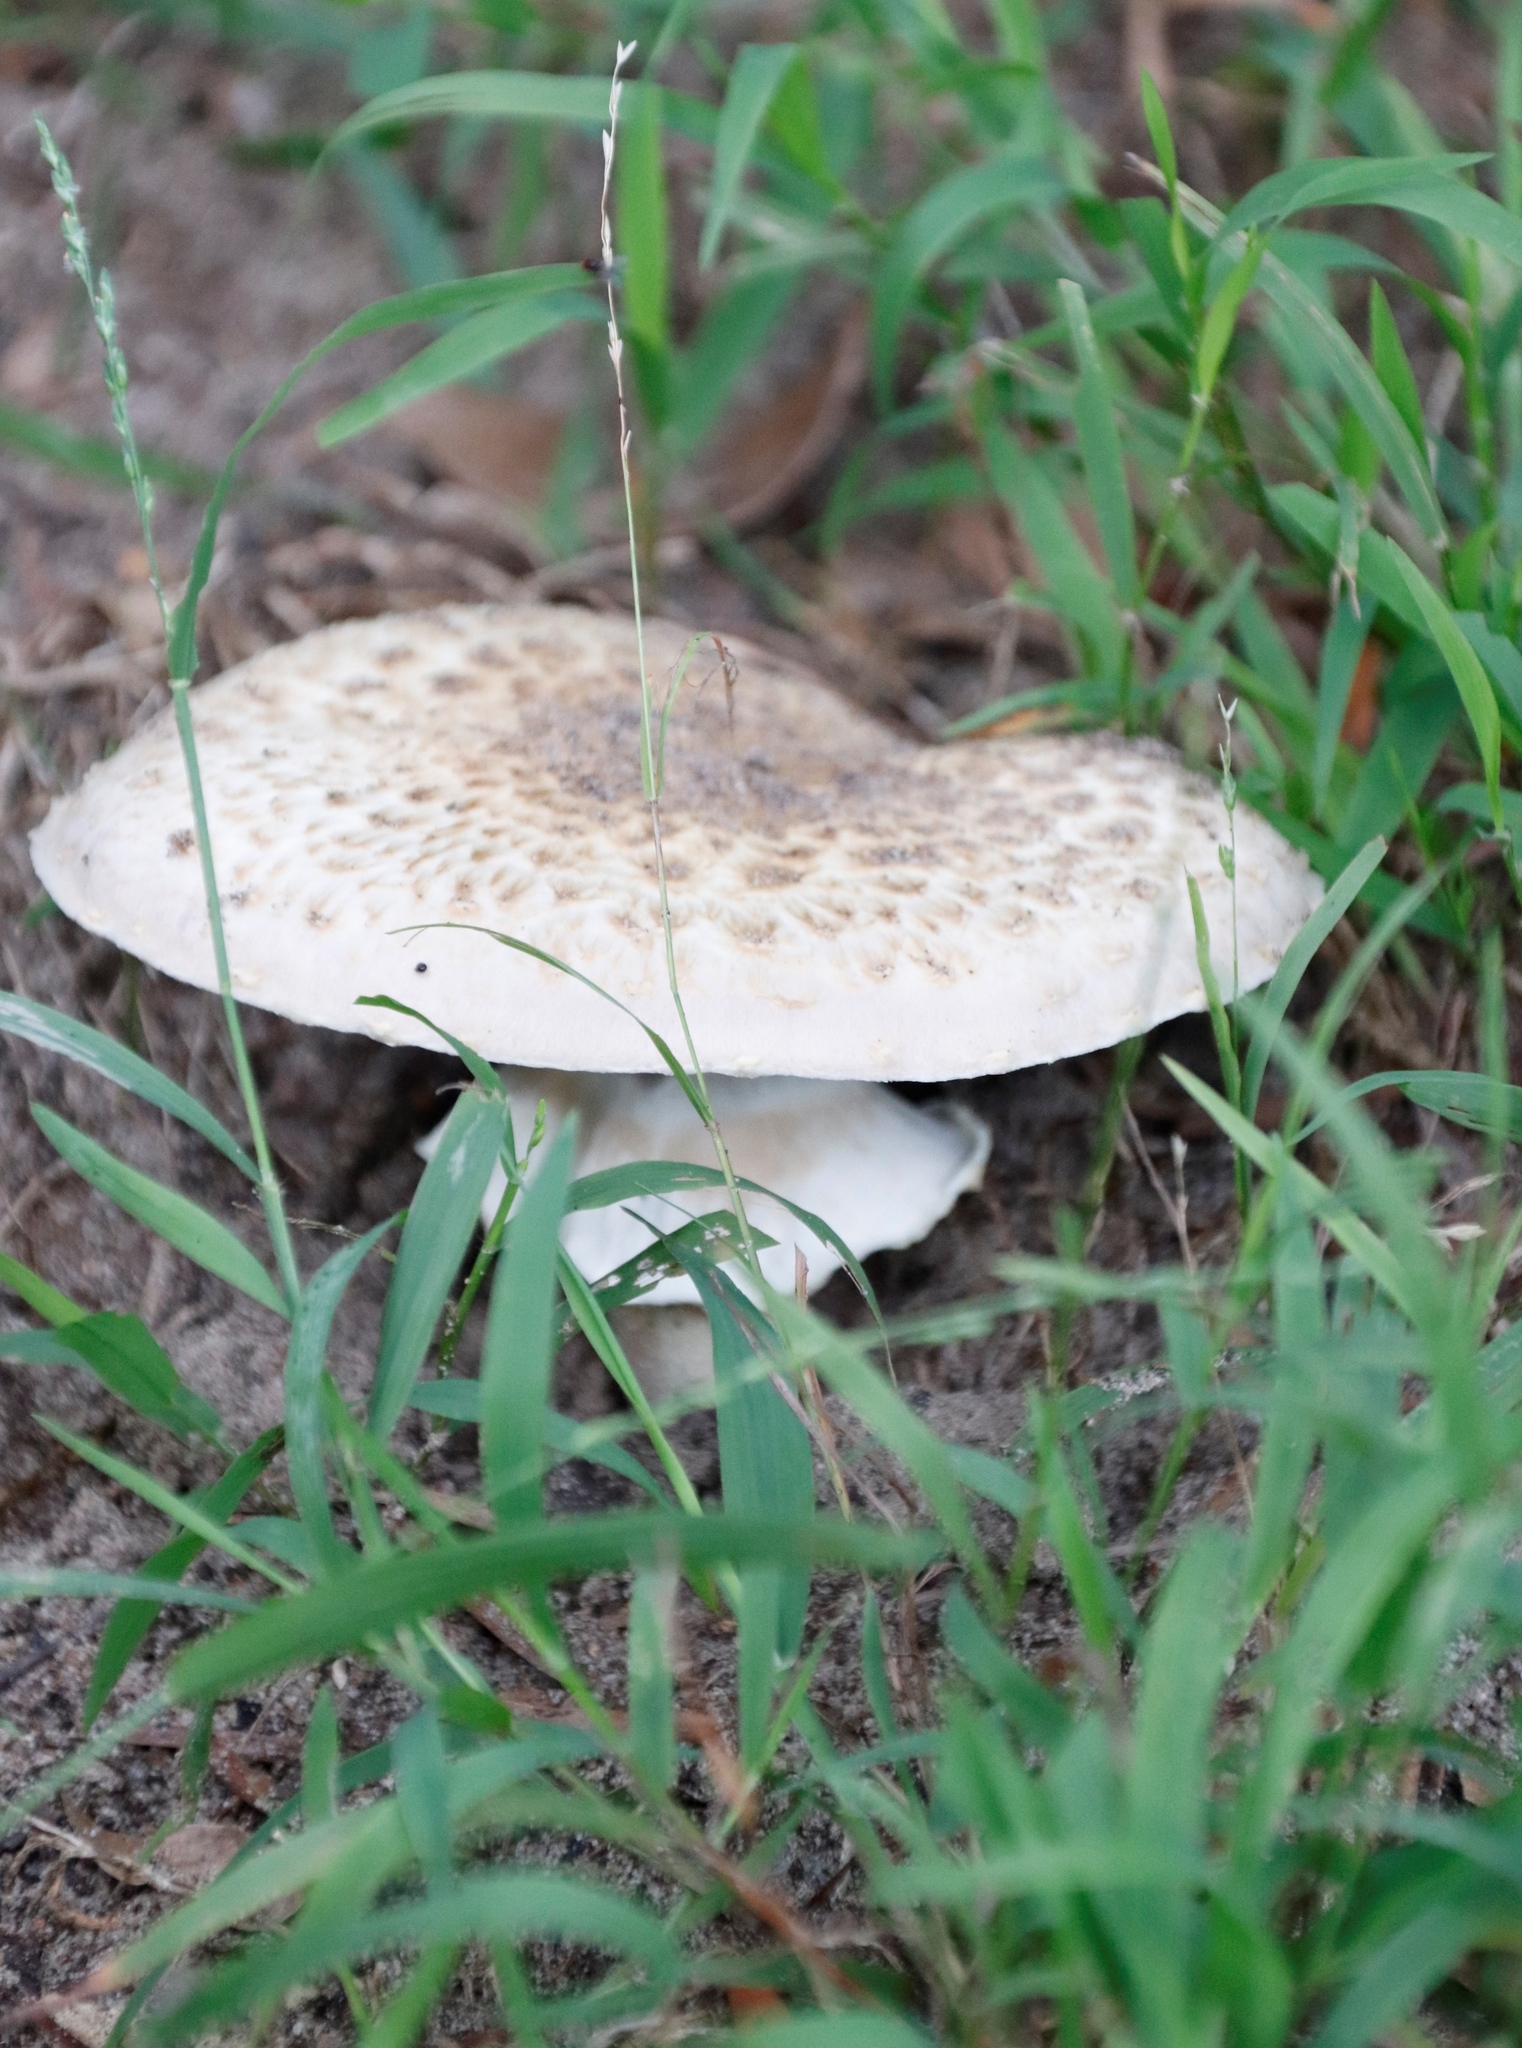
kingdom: Fungi
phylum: Basidiomycota
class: Agaricomycetes
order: Agaricales
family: Agaricaceae
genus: Agaricus
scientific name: Agaricus augustus
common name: Prince
